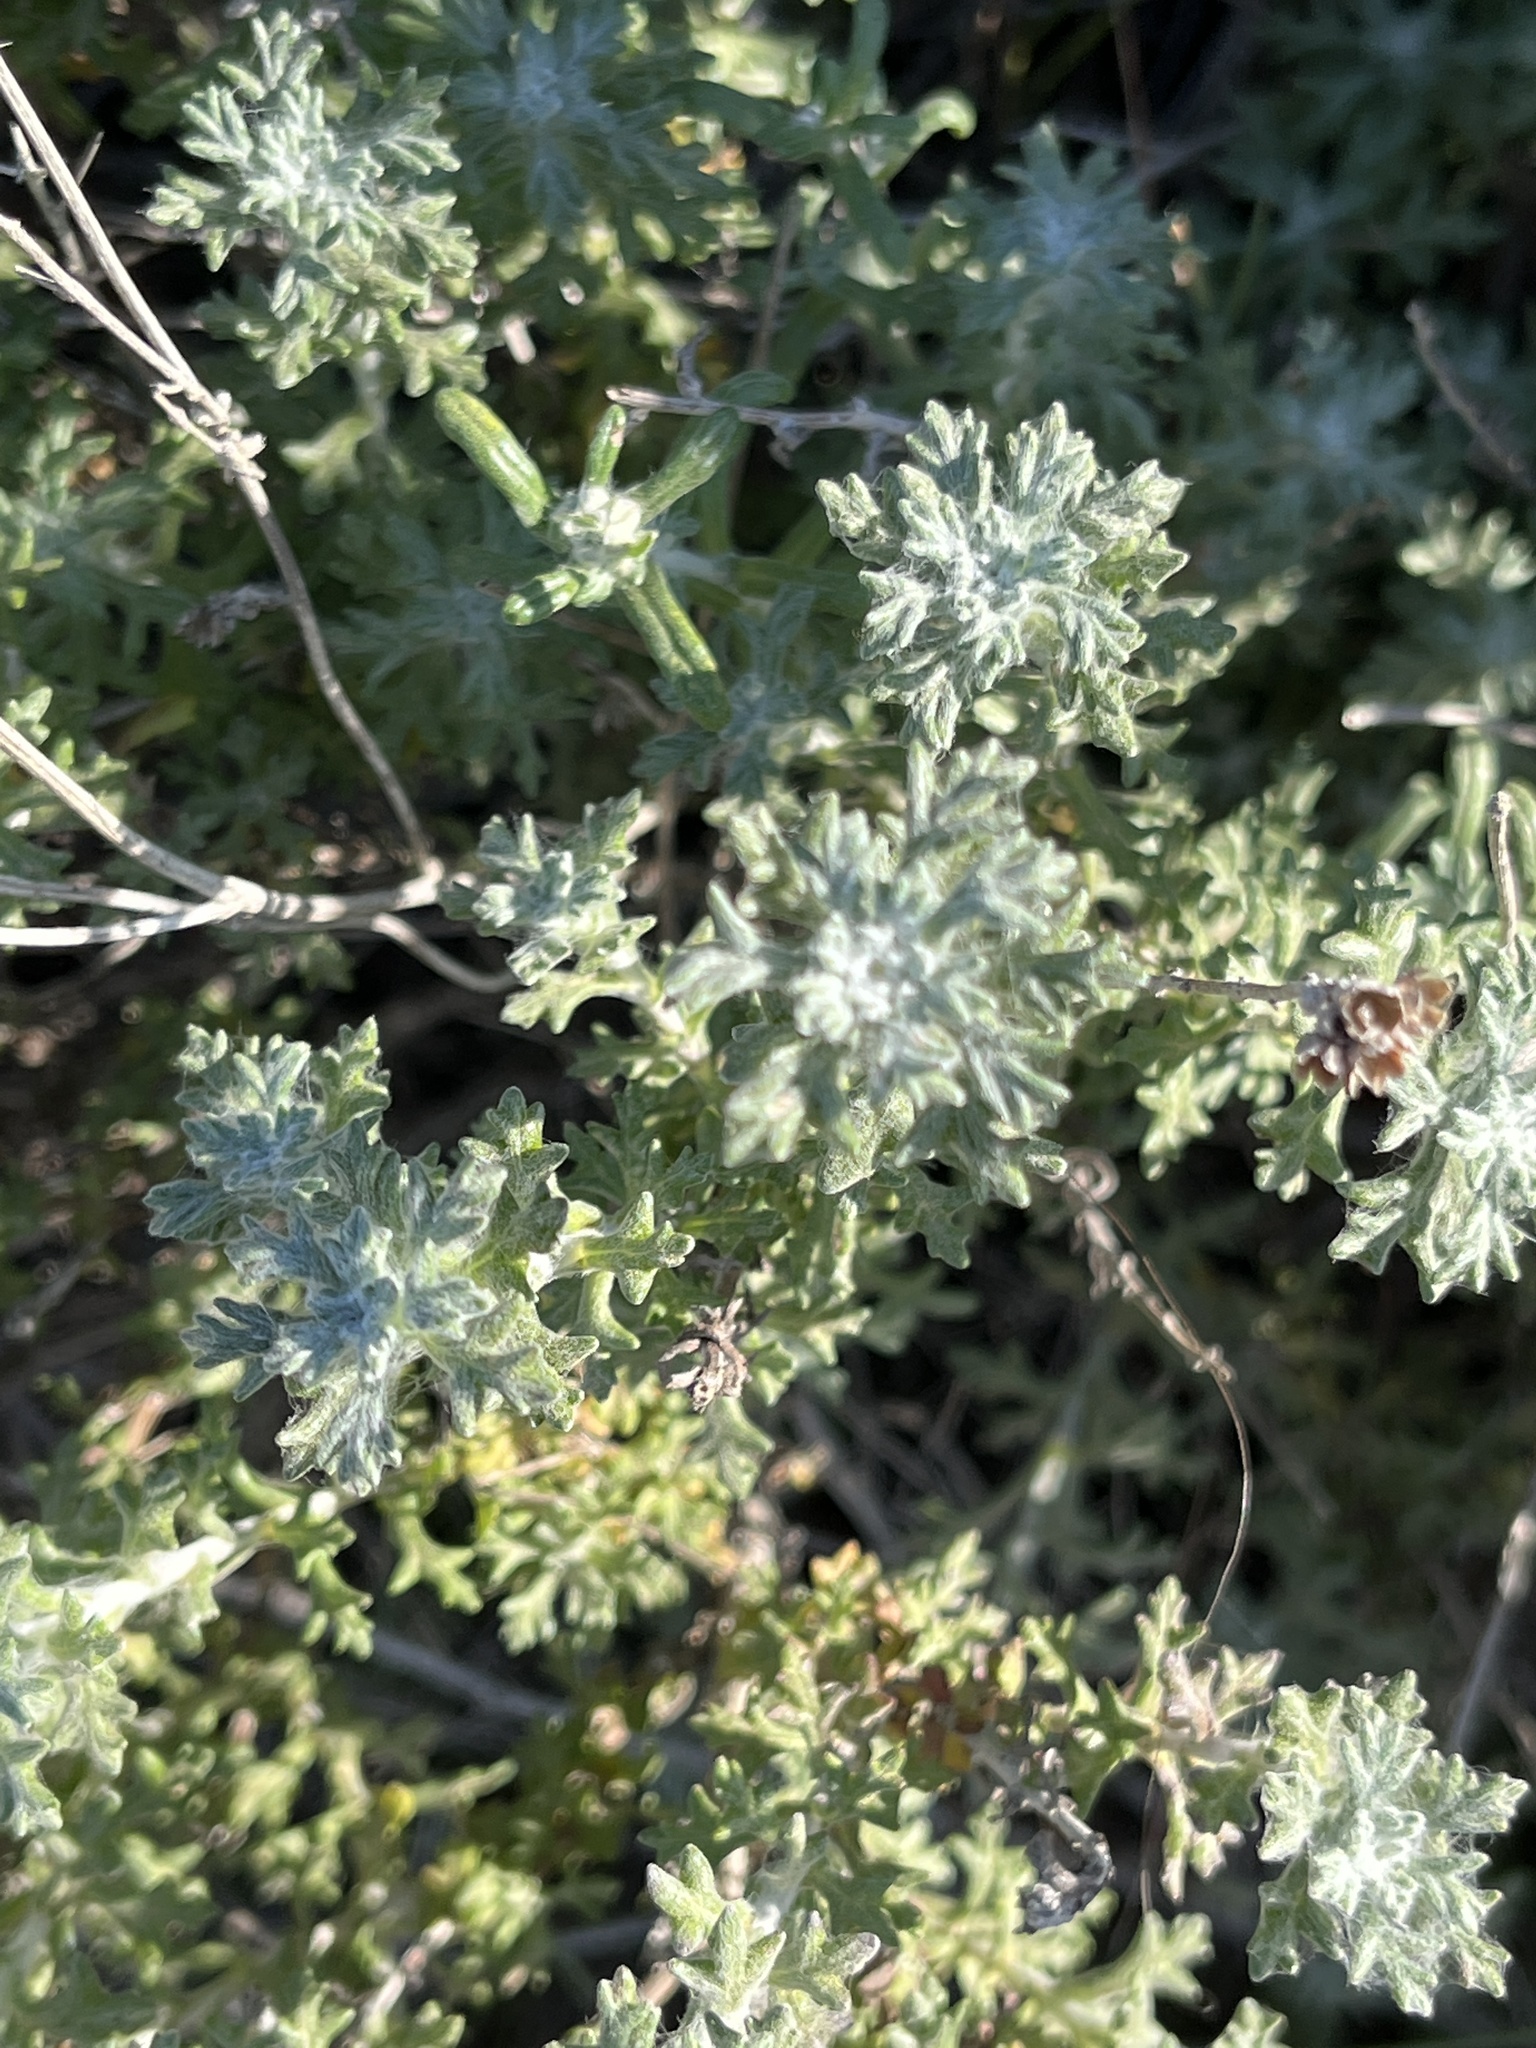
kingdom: Plantae
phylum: Tracheophyta
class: Magnoliopsida
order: Asterales
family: Asteraceae
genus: Eriophyllum
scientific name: Eriophyllum confertiflorum
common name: Golden-yarrow
